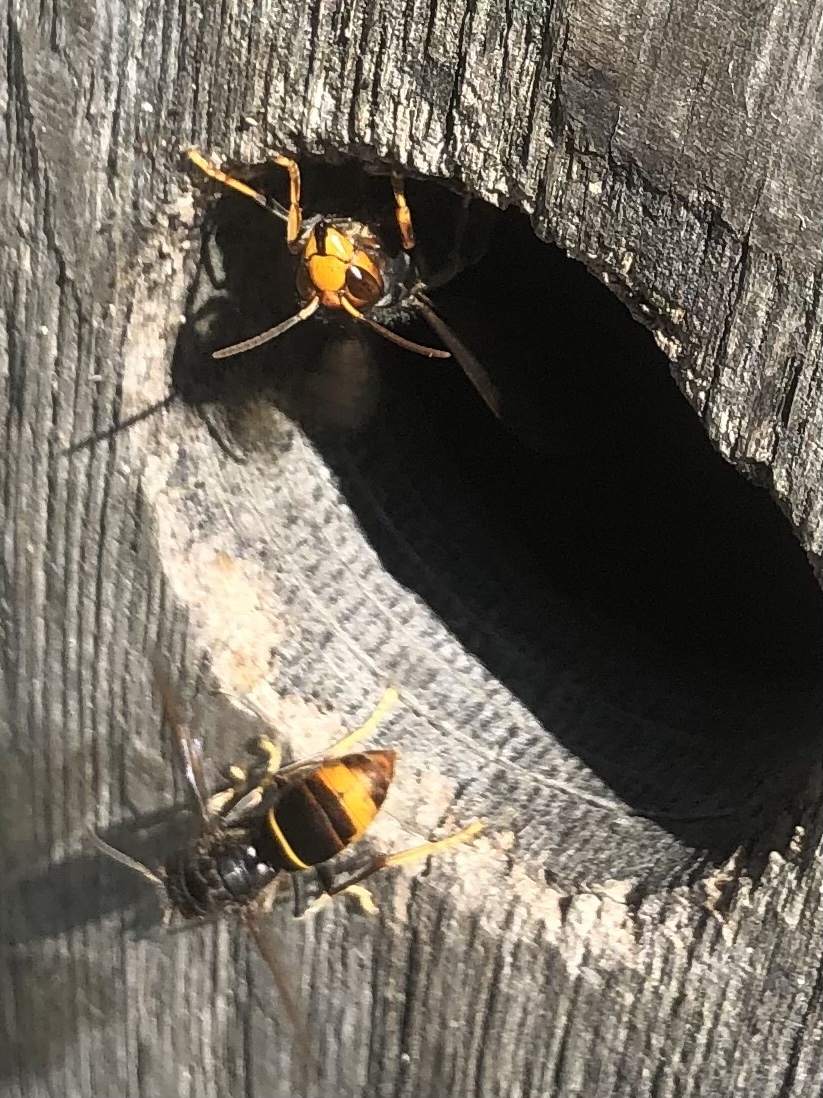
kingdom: Animalia
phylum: Arthropoda
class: Insecta
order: Hymenoptera
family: Vespidae
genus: Vespa
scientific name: Vespa velutina
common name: Asian hornet
